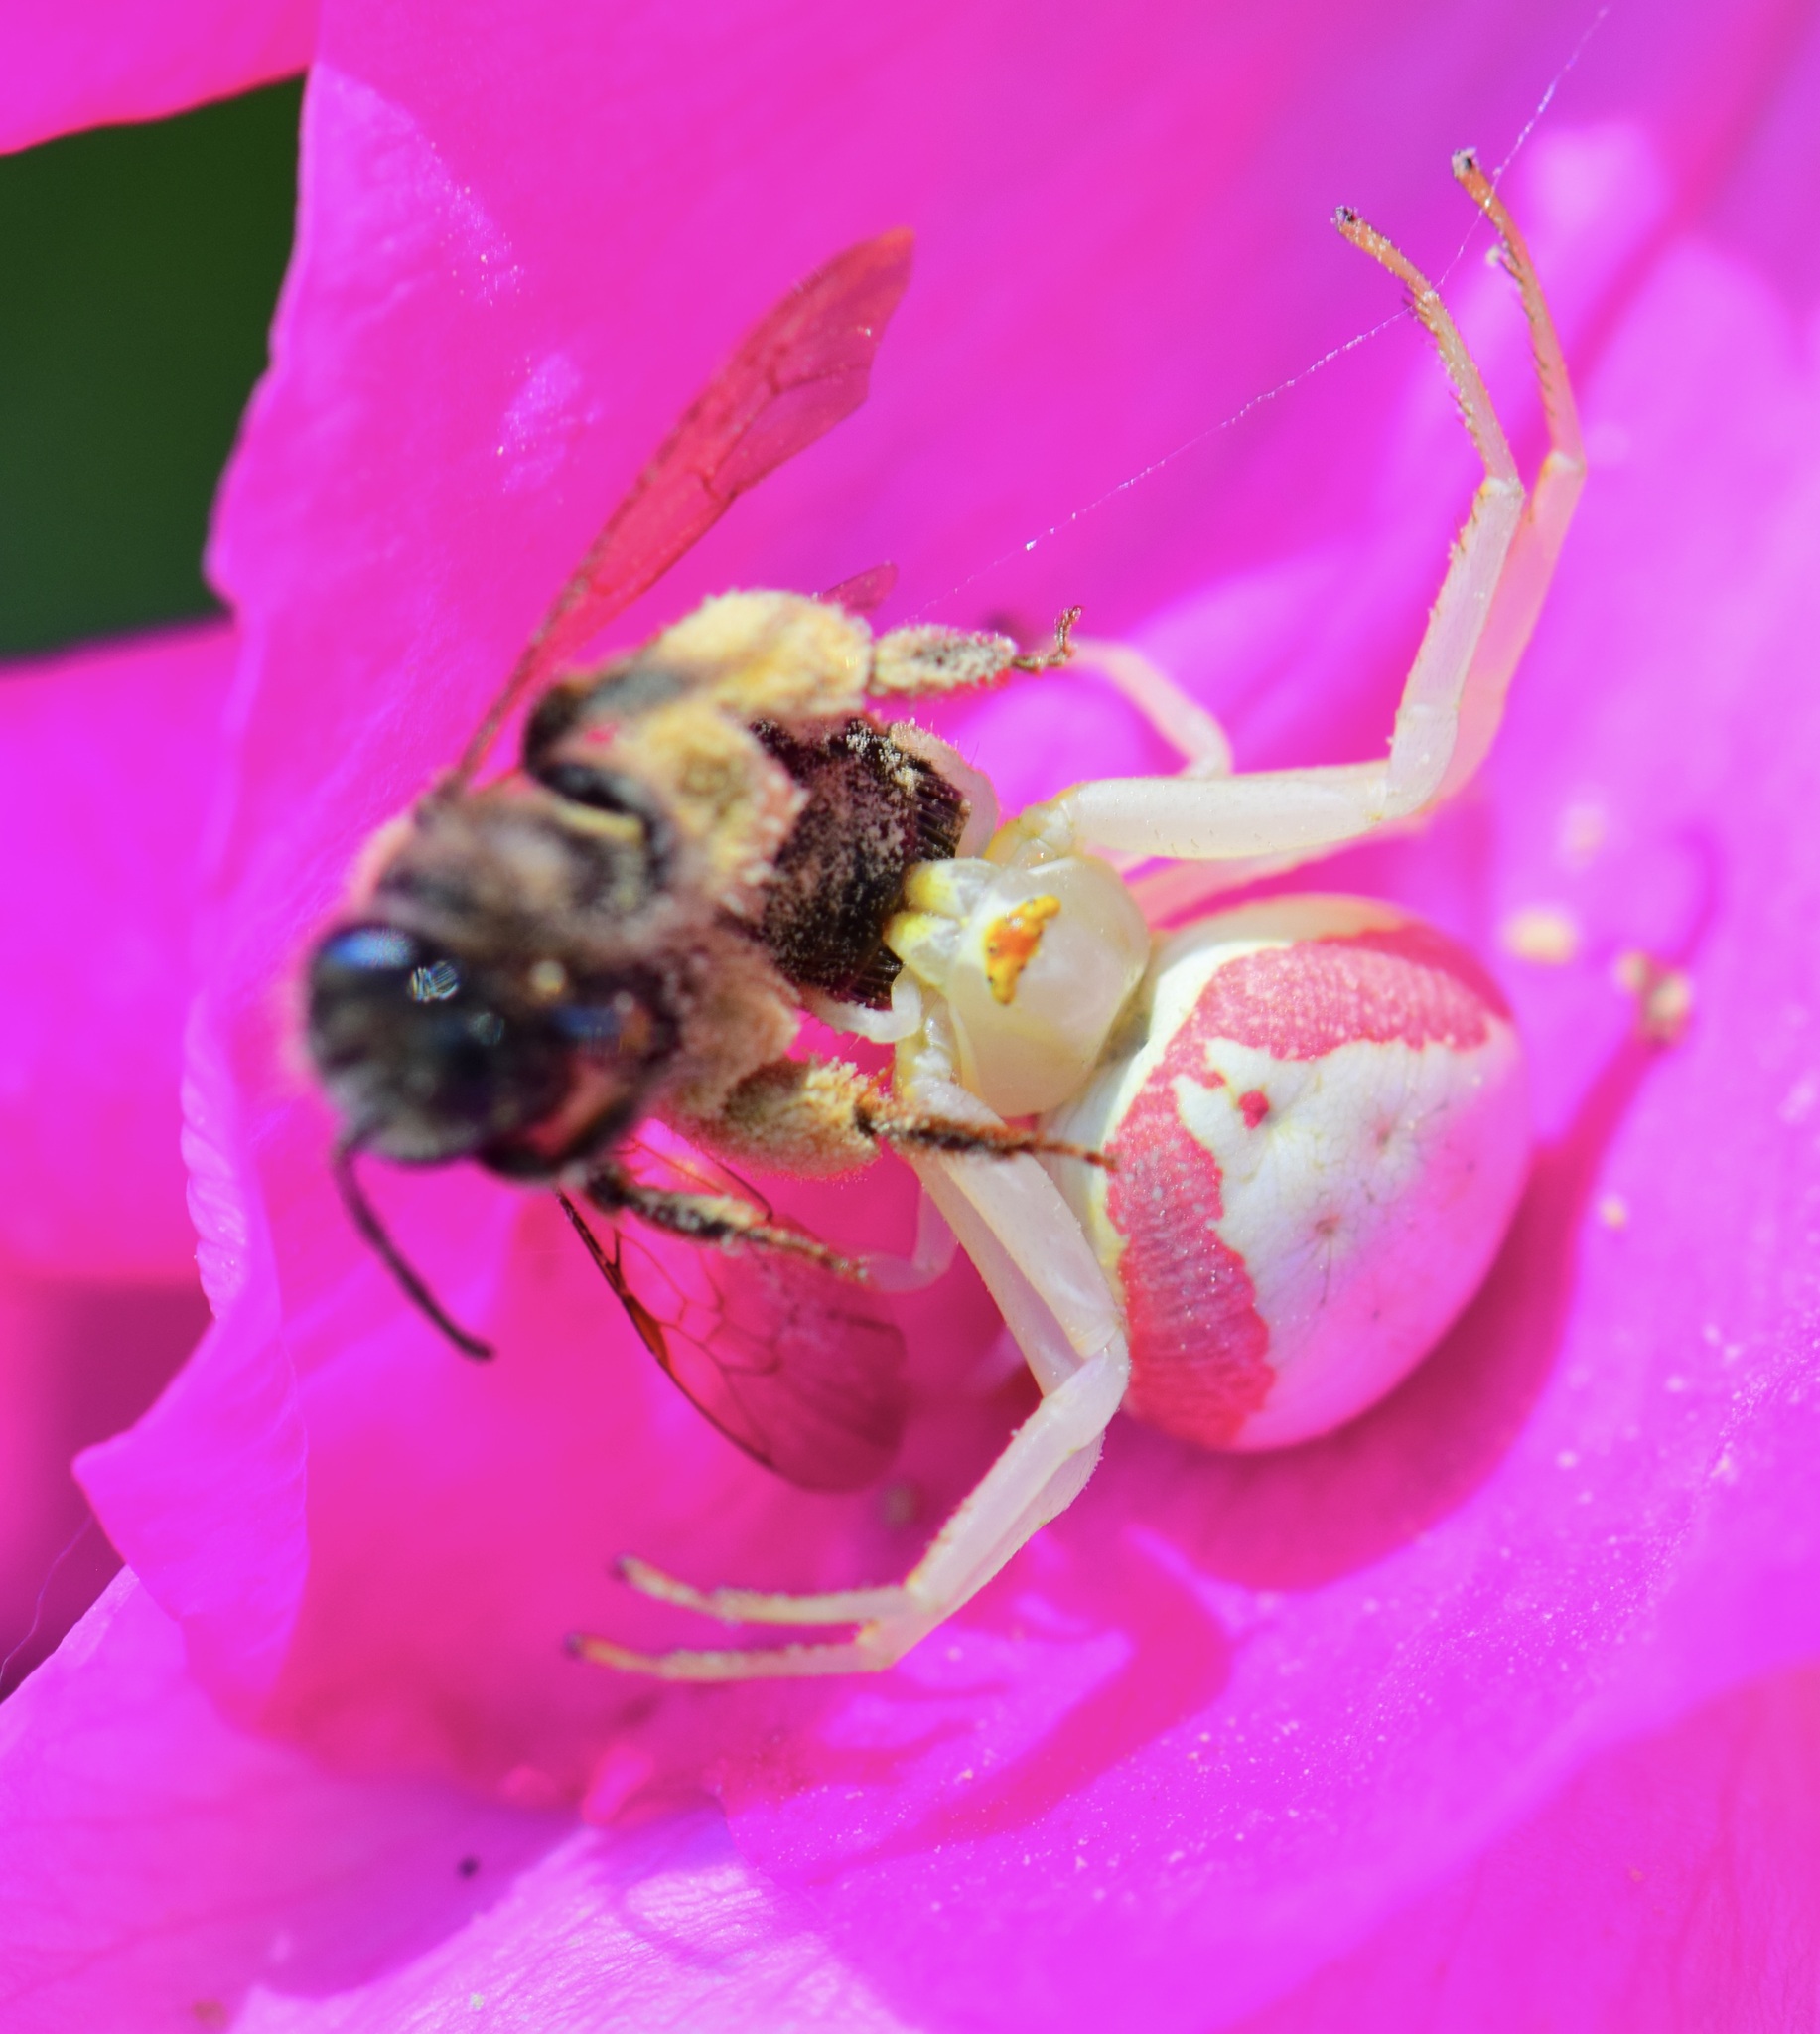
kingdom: Animalia
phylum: Arthropoda
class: Arachnida
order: Araneae
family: Thomisidae
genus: Misumena
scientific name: Misumena vatia
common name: Goldenrod crab spider
